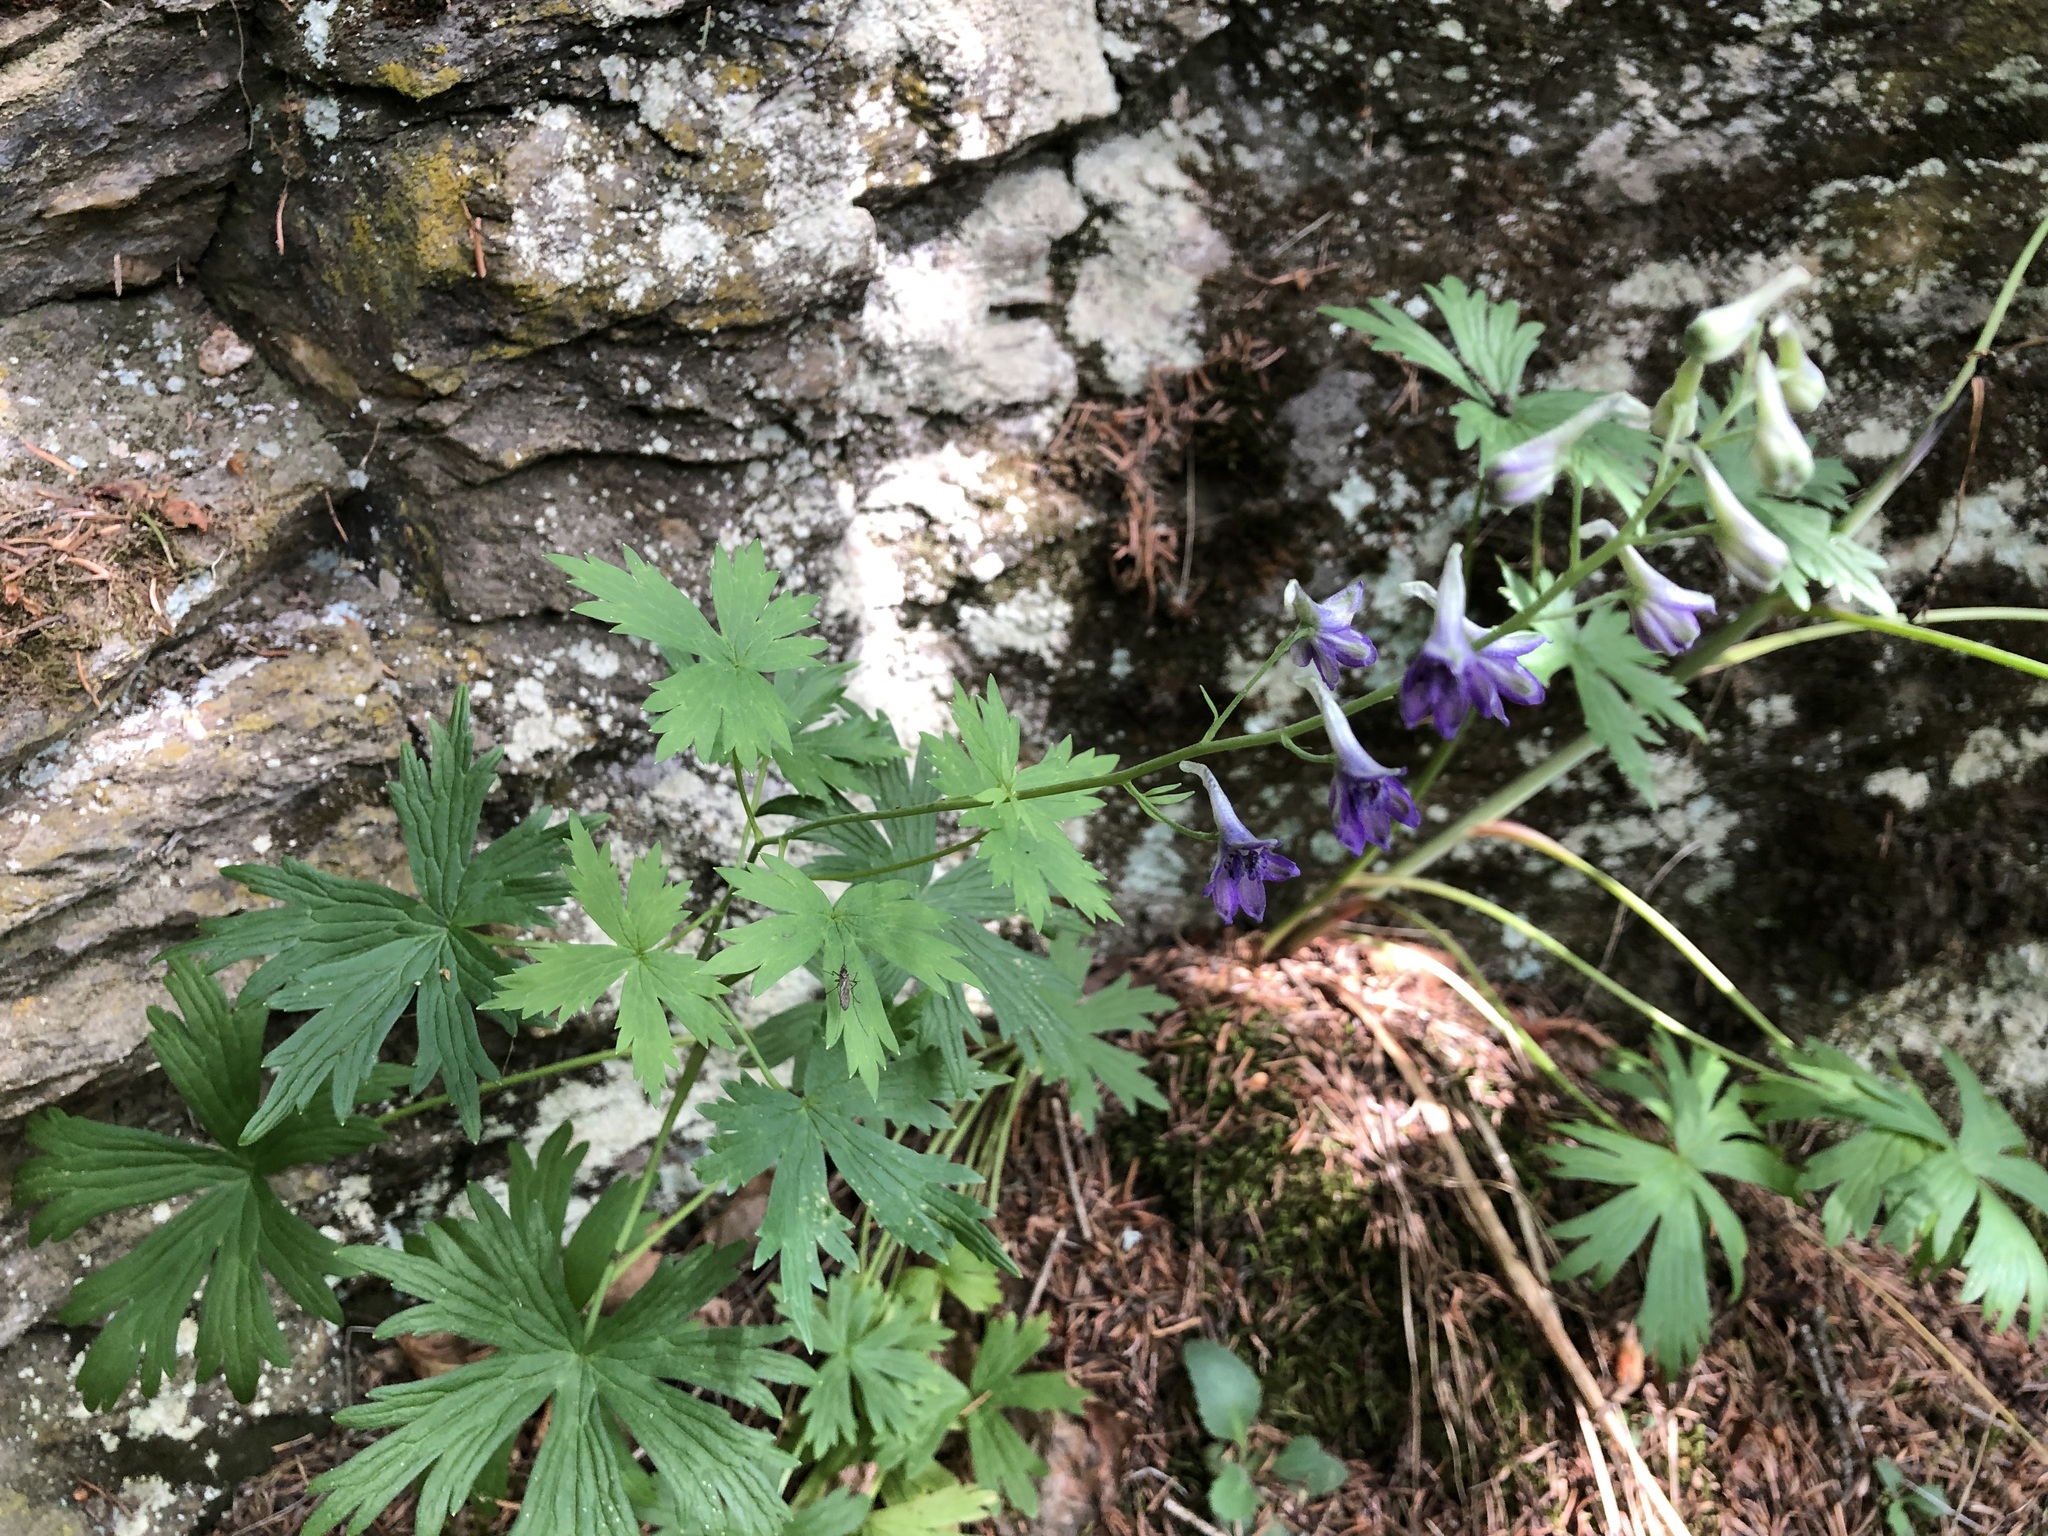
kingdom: Plantae
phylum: Tracheophyta
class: Magnoliopsida
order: Ranunculales
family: Ranunculaceae
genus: Delphinium
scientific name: Delphinium glaucum
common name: Brown's larkspur
